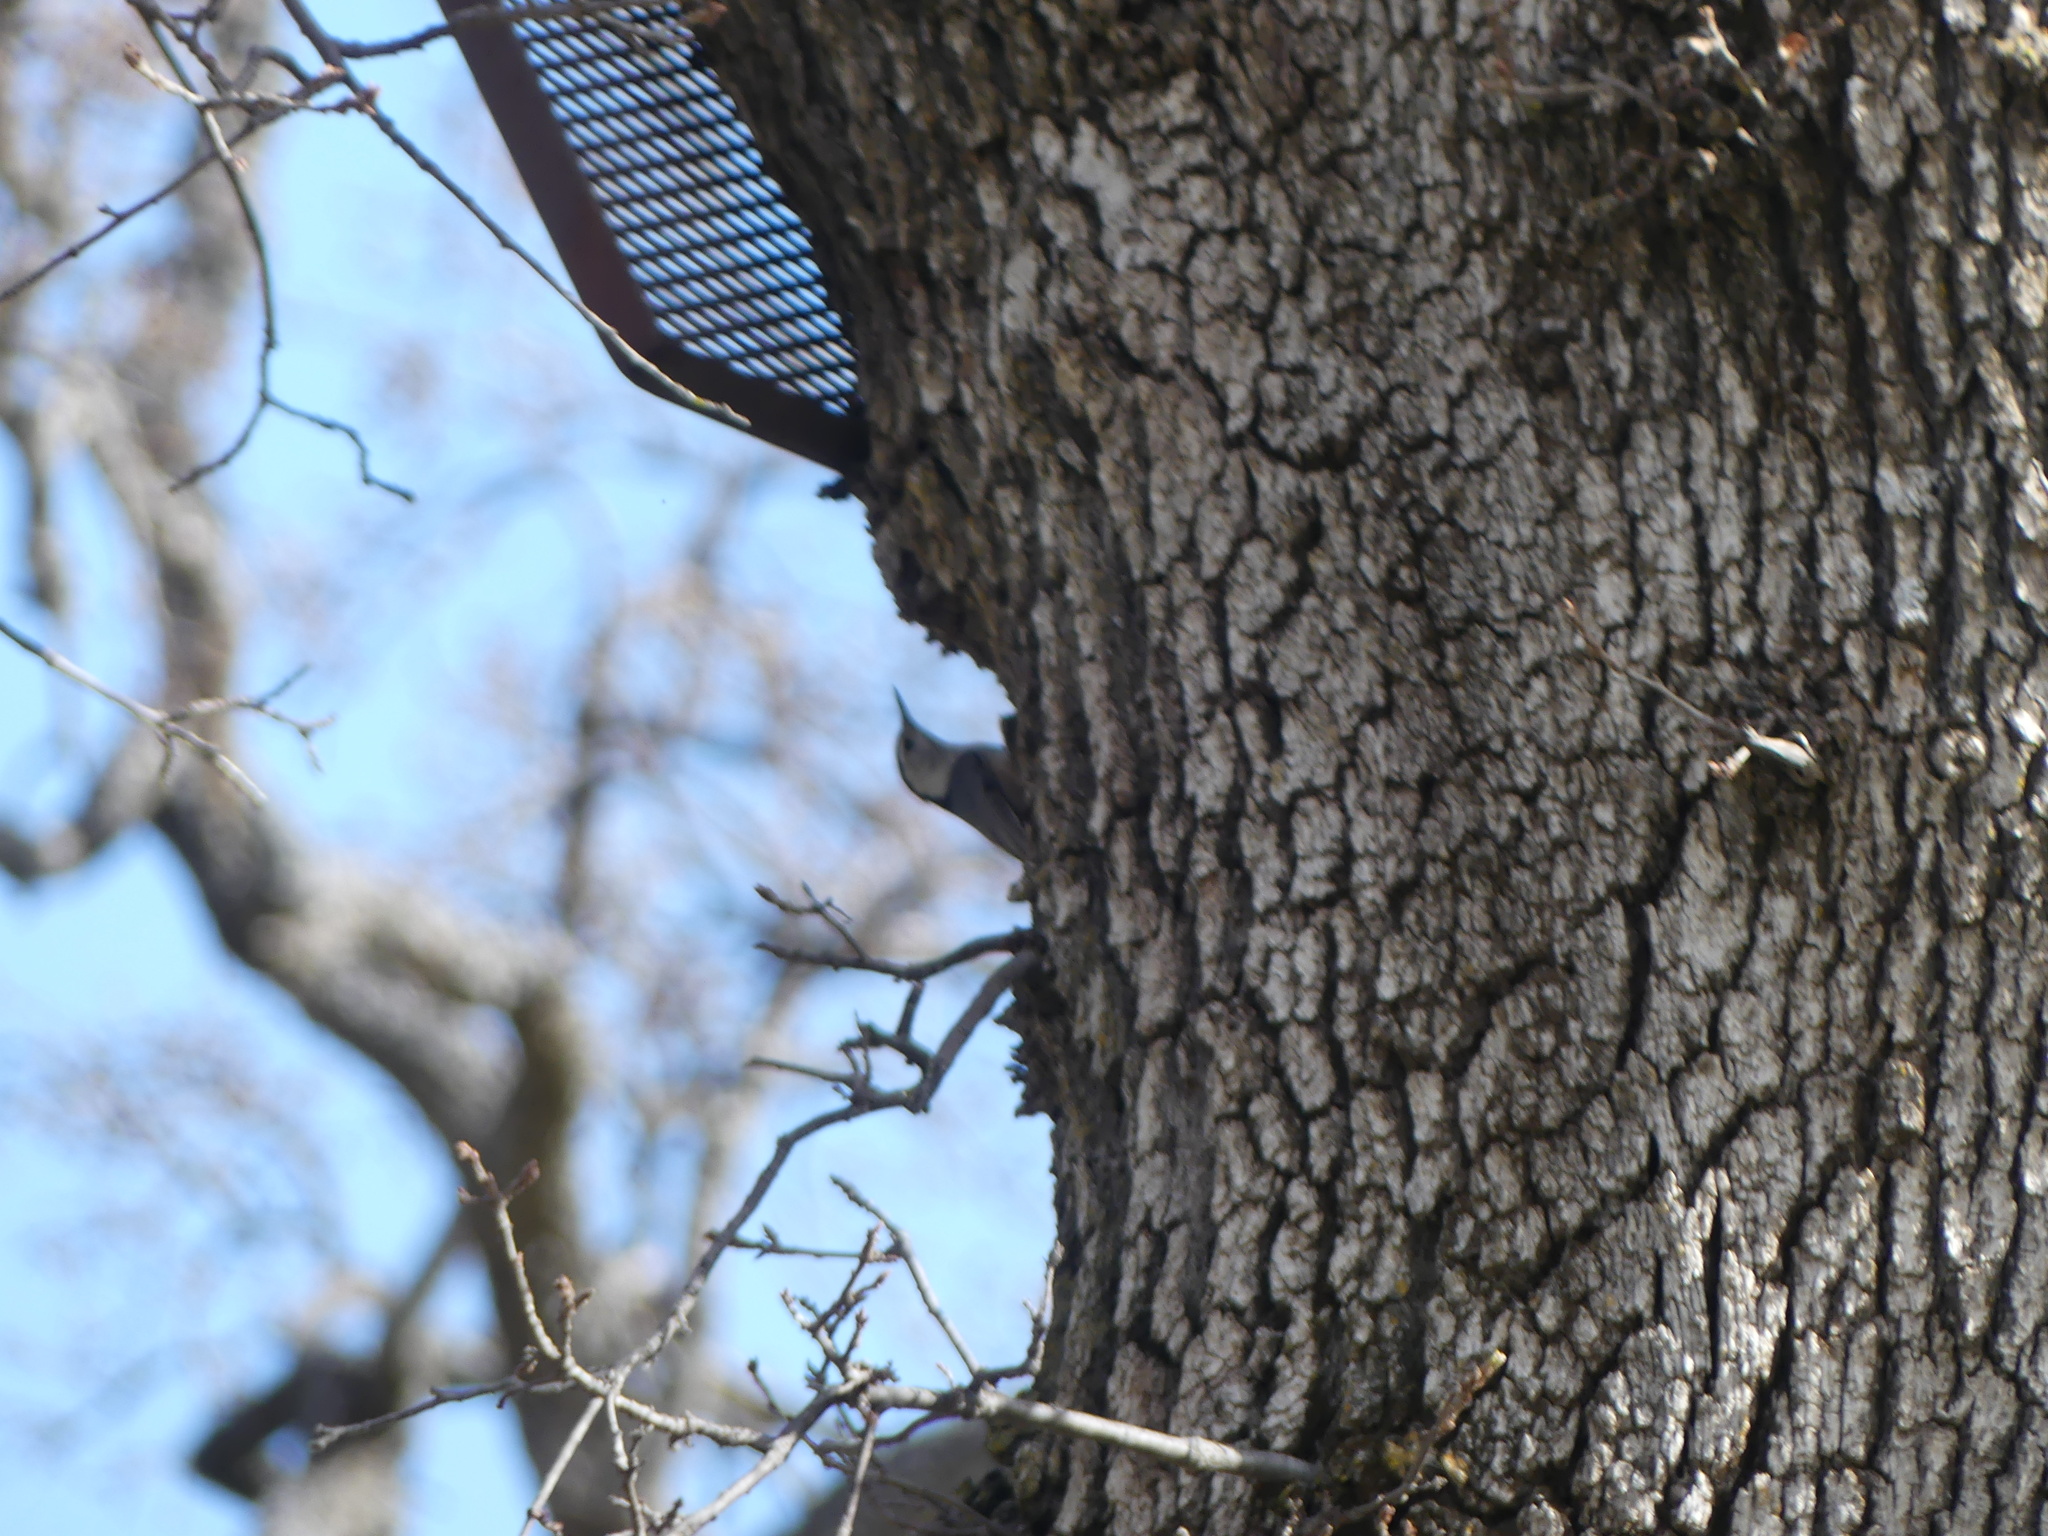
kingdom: Animalia
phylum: Chordata
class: Aves
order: Passeriformes
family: Sittidae
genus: Sitta
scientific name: Sitta carolinensis
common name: White-breasted nuthatch
